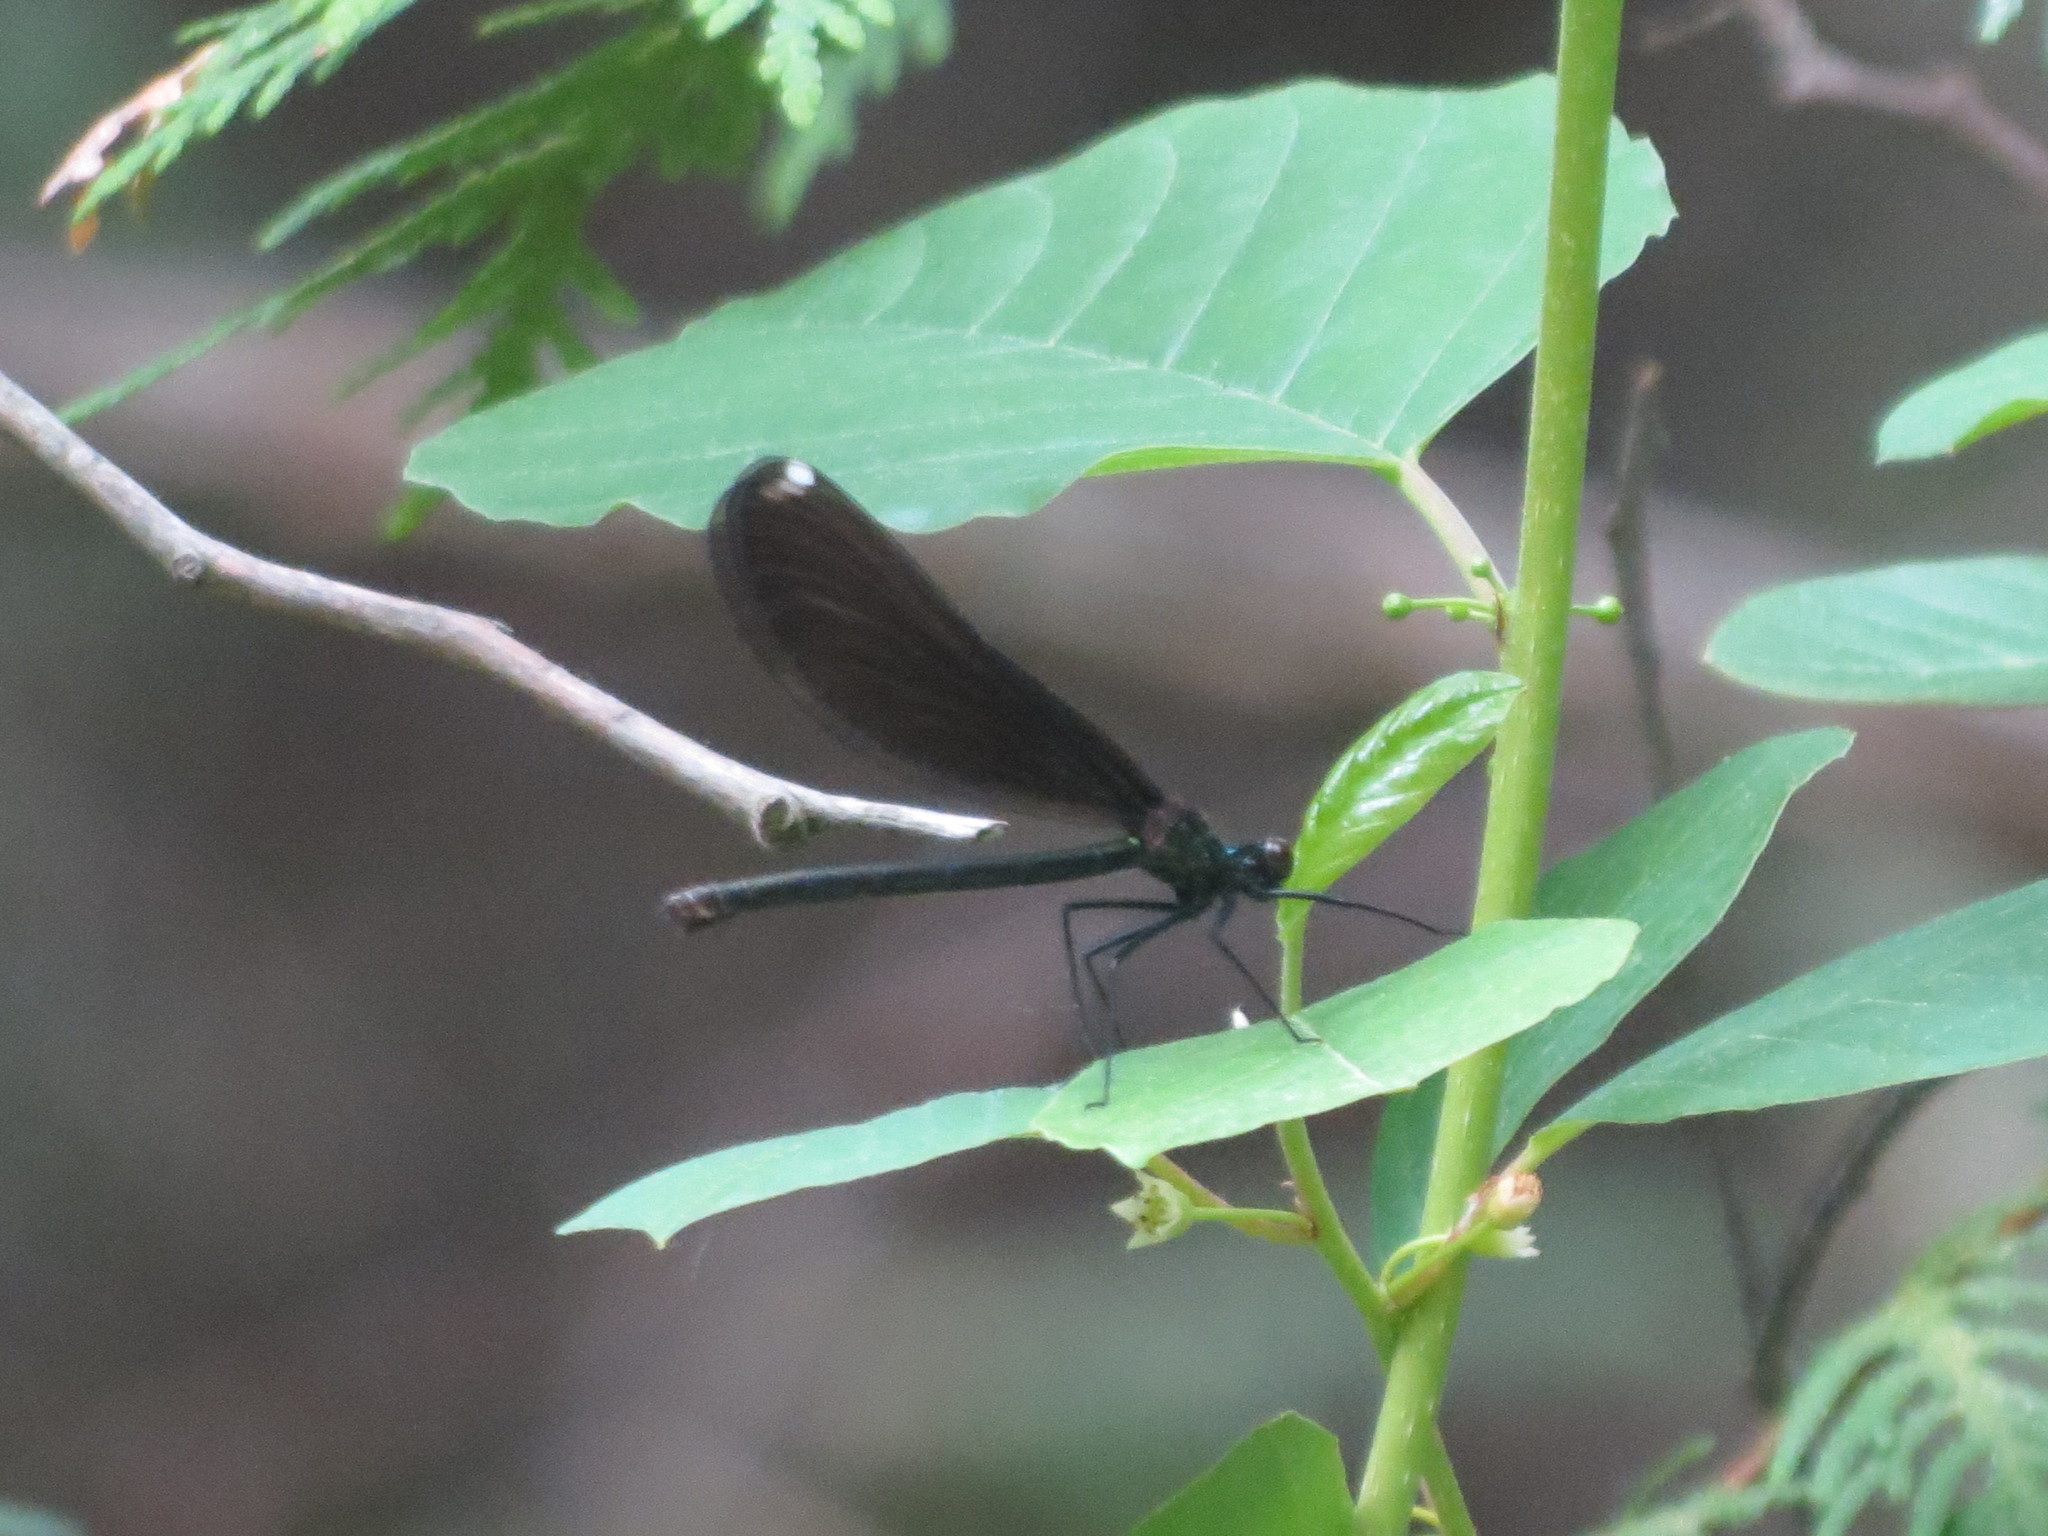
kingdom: Animalia
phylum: Arthropoda
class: Insecta
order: Odonata
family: Calopterygidae
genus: Calopteryx
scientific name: Calopteryx maculata
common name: Ebony jewelwing
